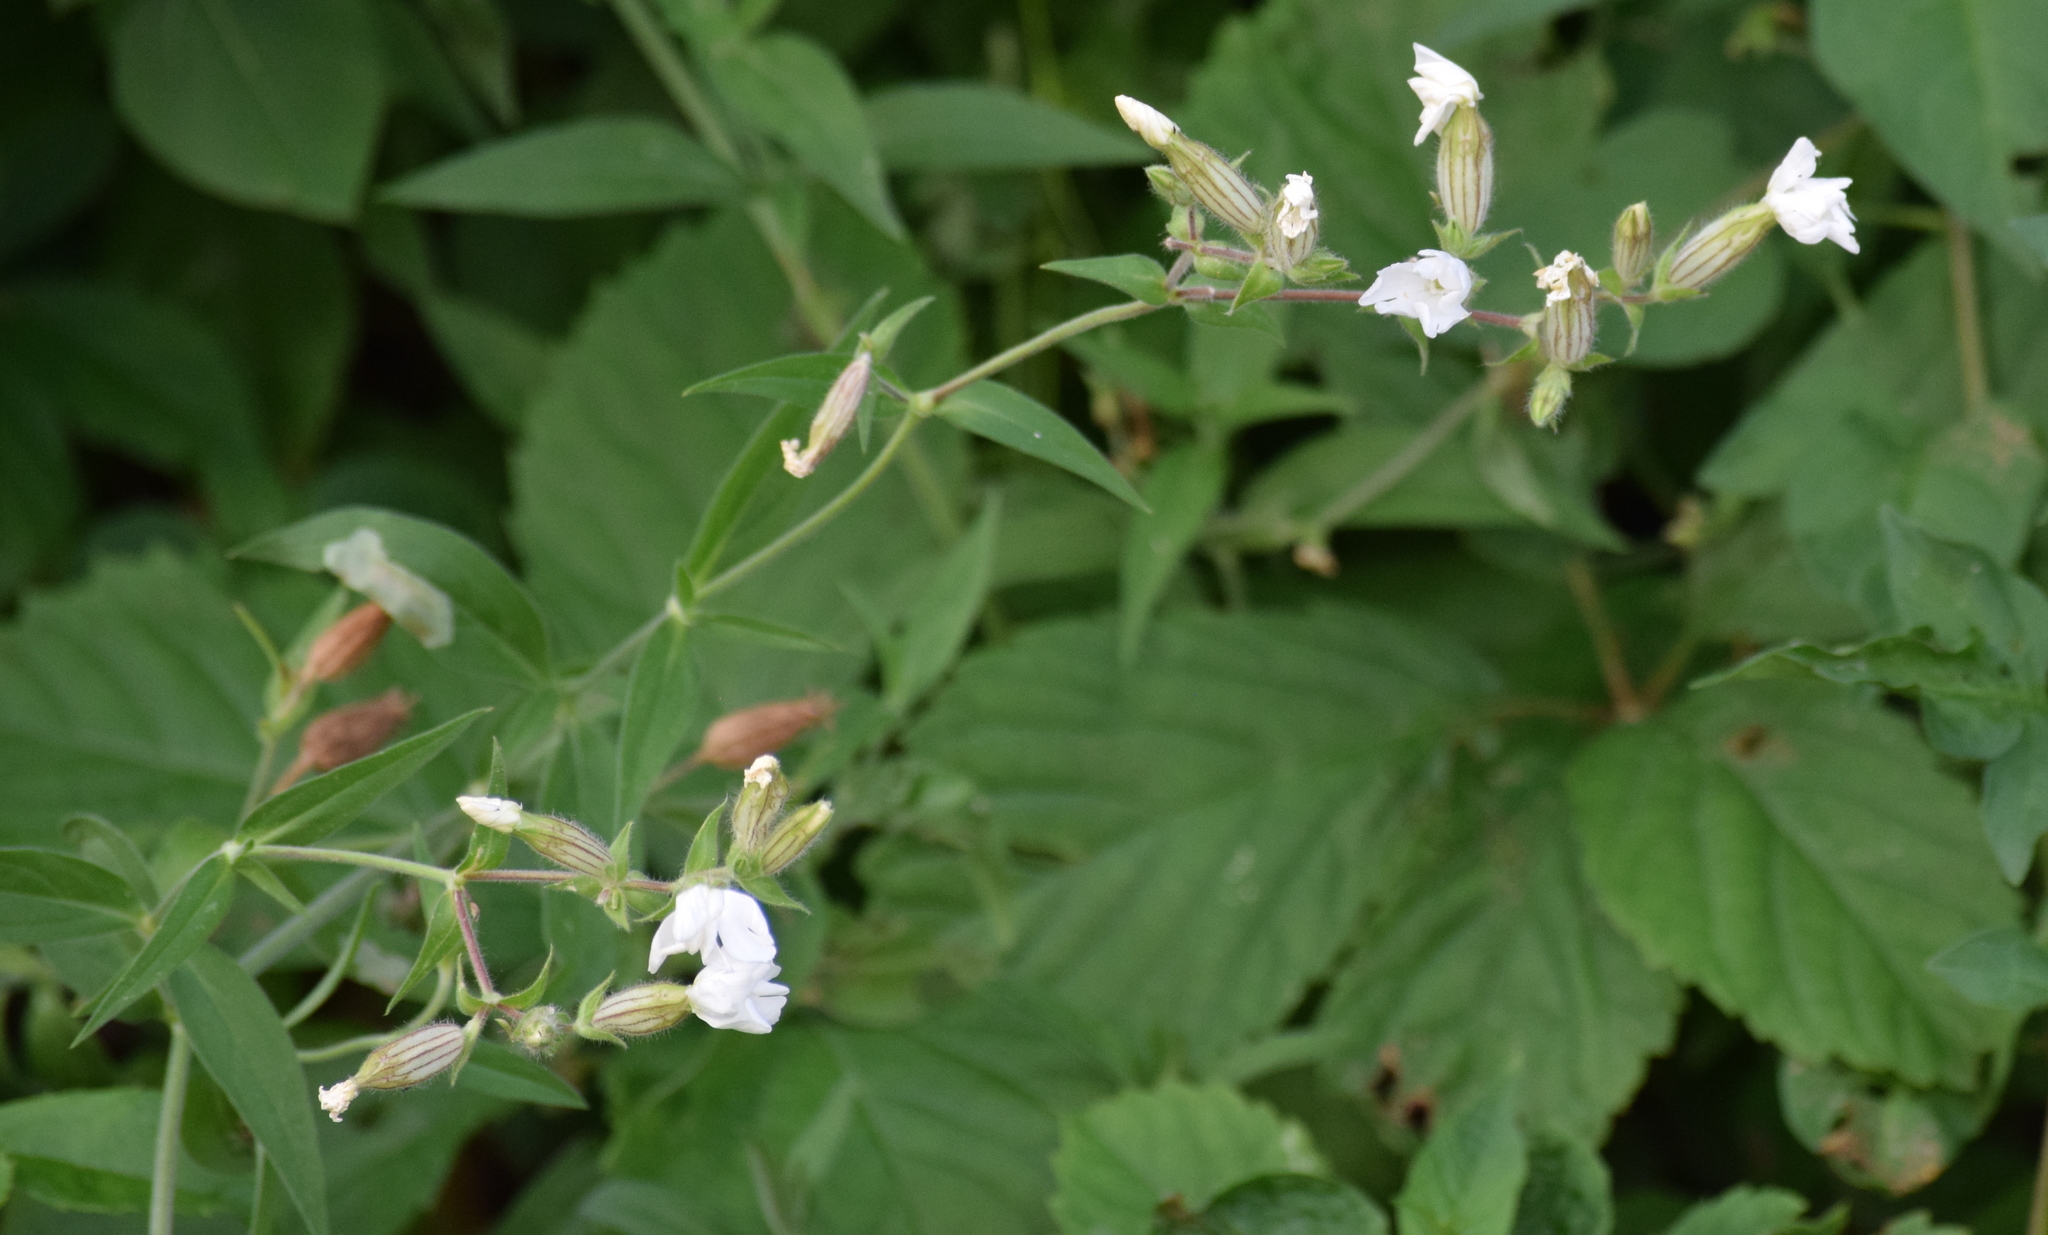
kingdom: Plantae
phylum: Tracheophyta
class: Magnoliopsida
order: Caryophyllales
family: Caryophyllaceae
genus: Silene
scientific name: Silene latifolia
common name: White campion
